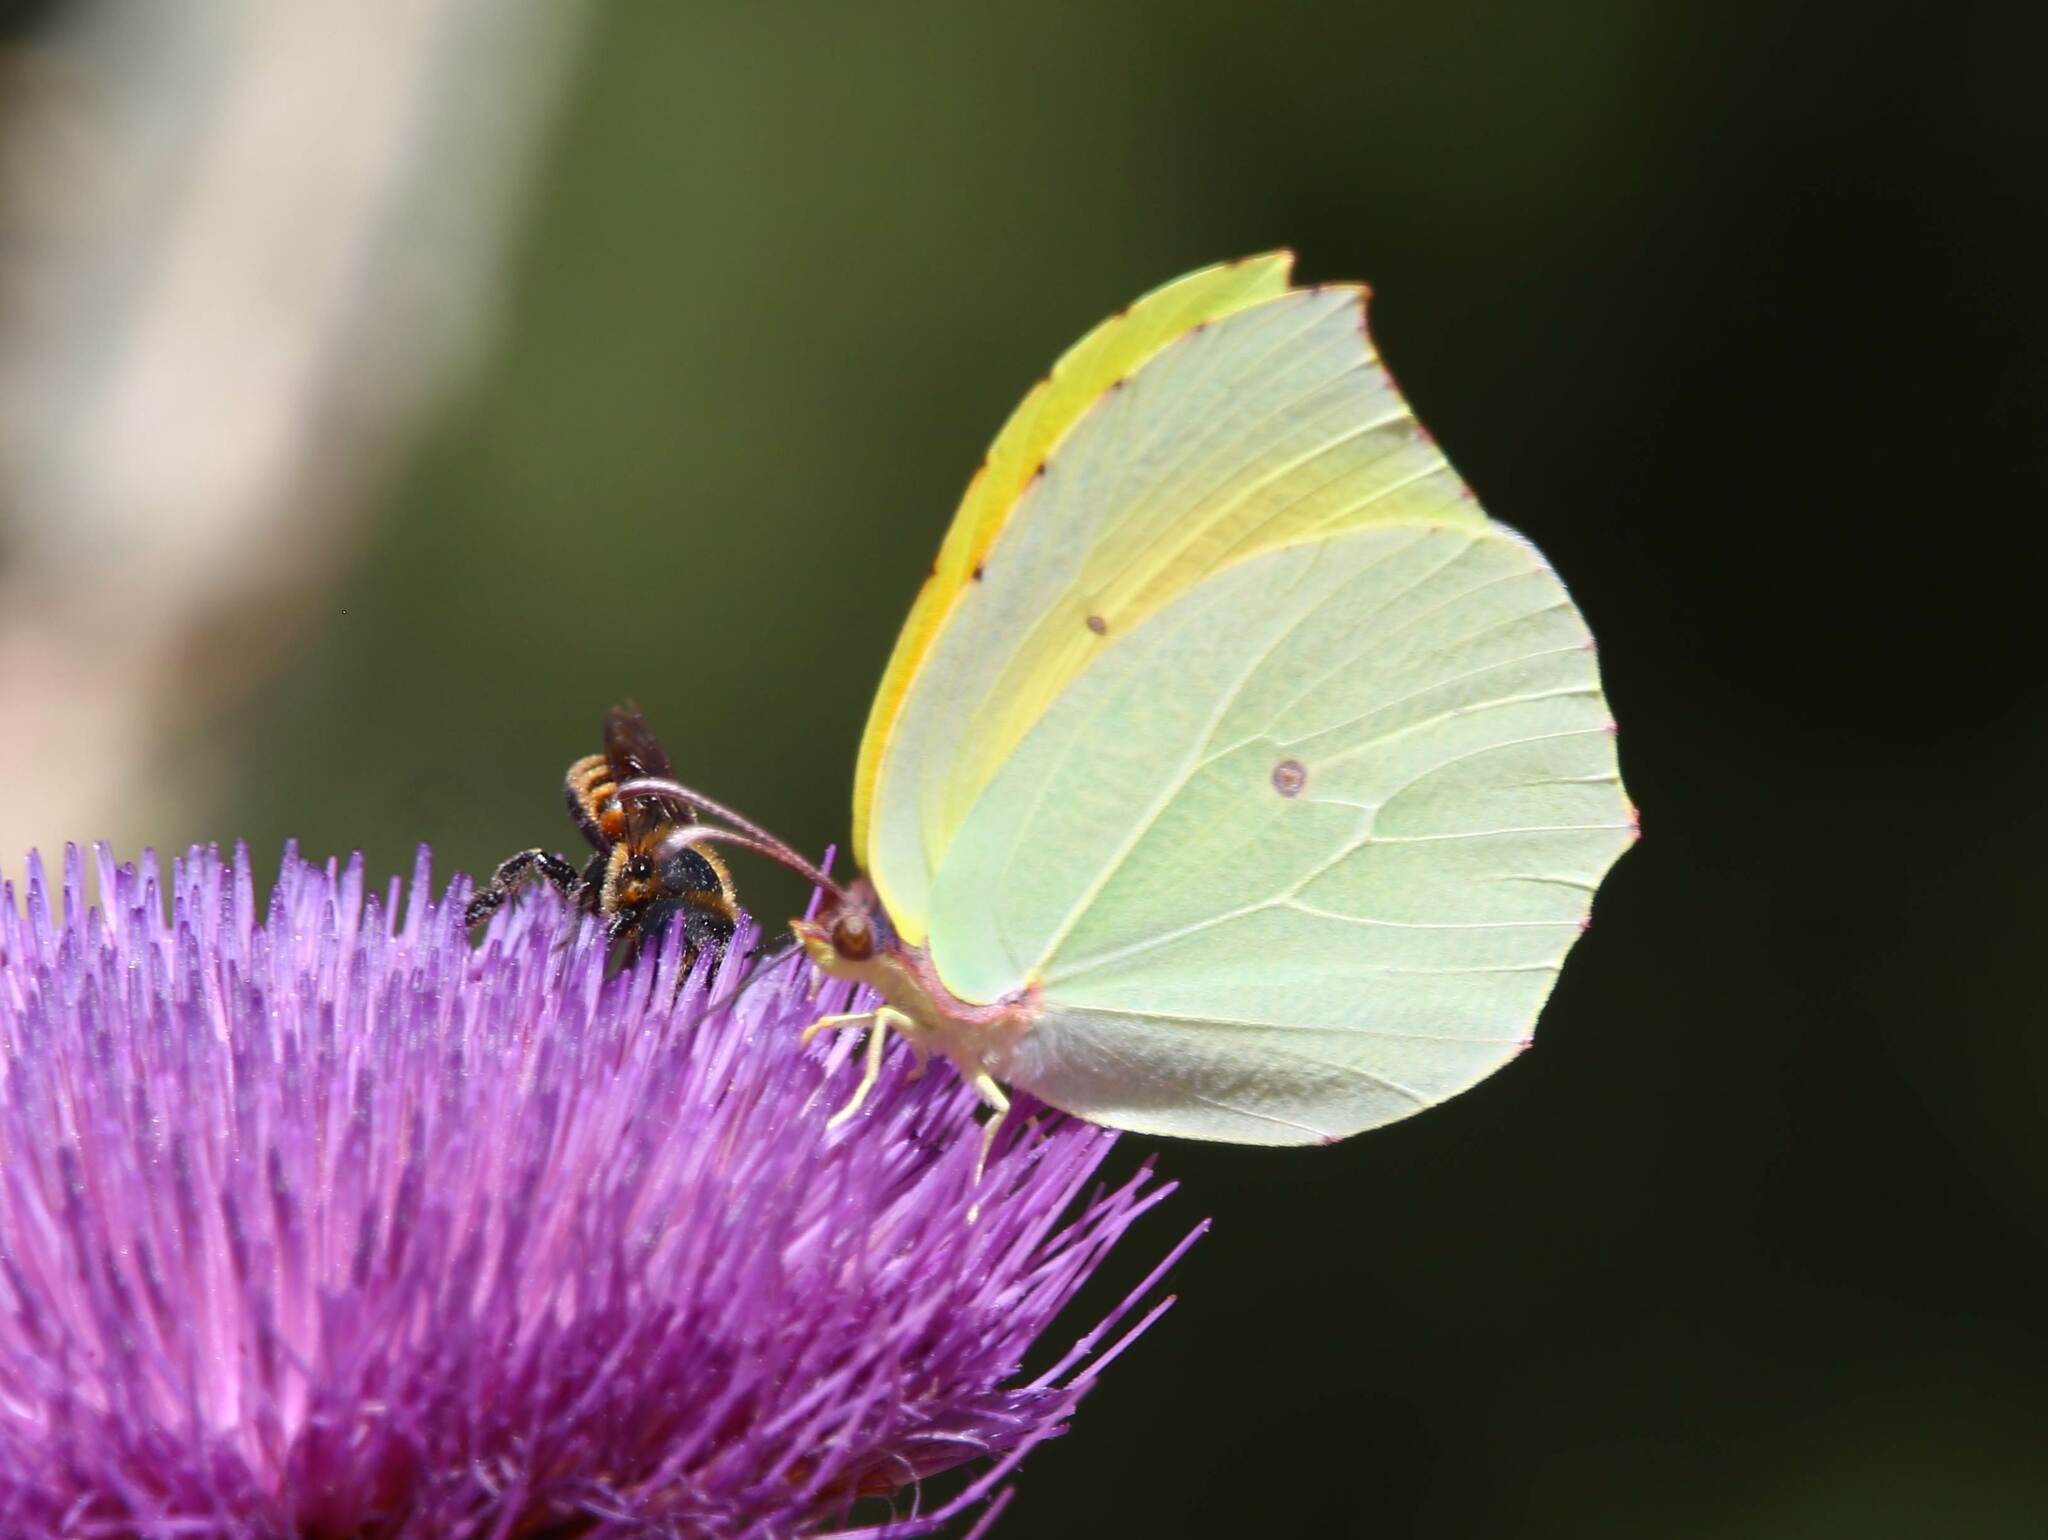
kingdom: Animalia
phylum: Arthropoda
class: Insecta
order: Lepidoptera
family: Pieridae
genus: Gonepteryx
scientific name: Gonepteryx cleopatra
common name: Cleopatra
